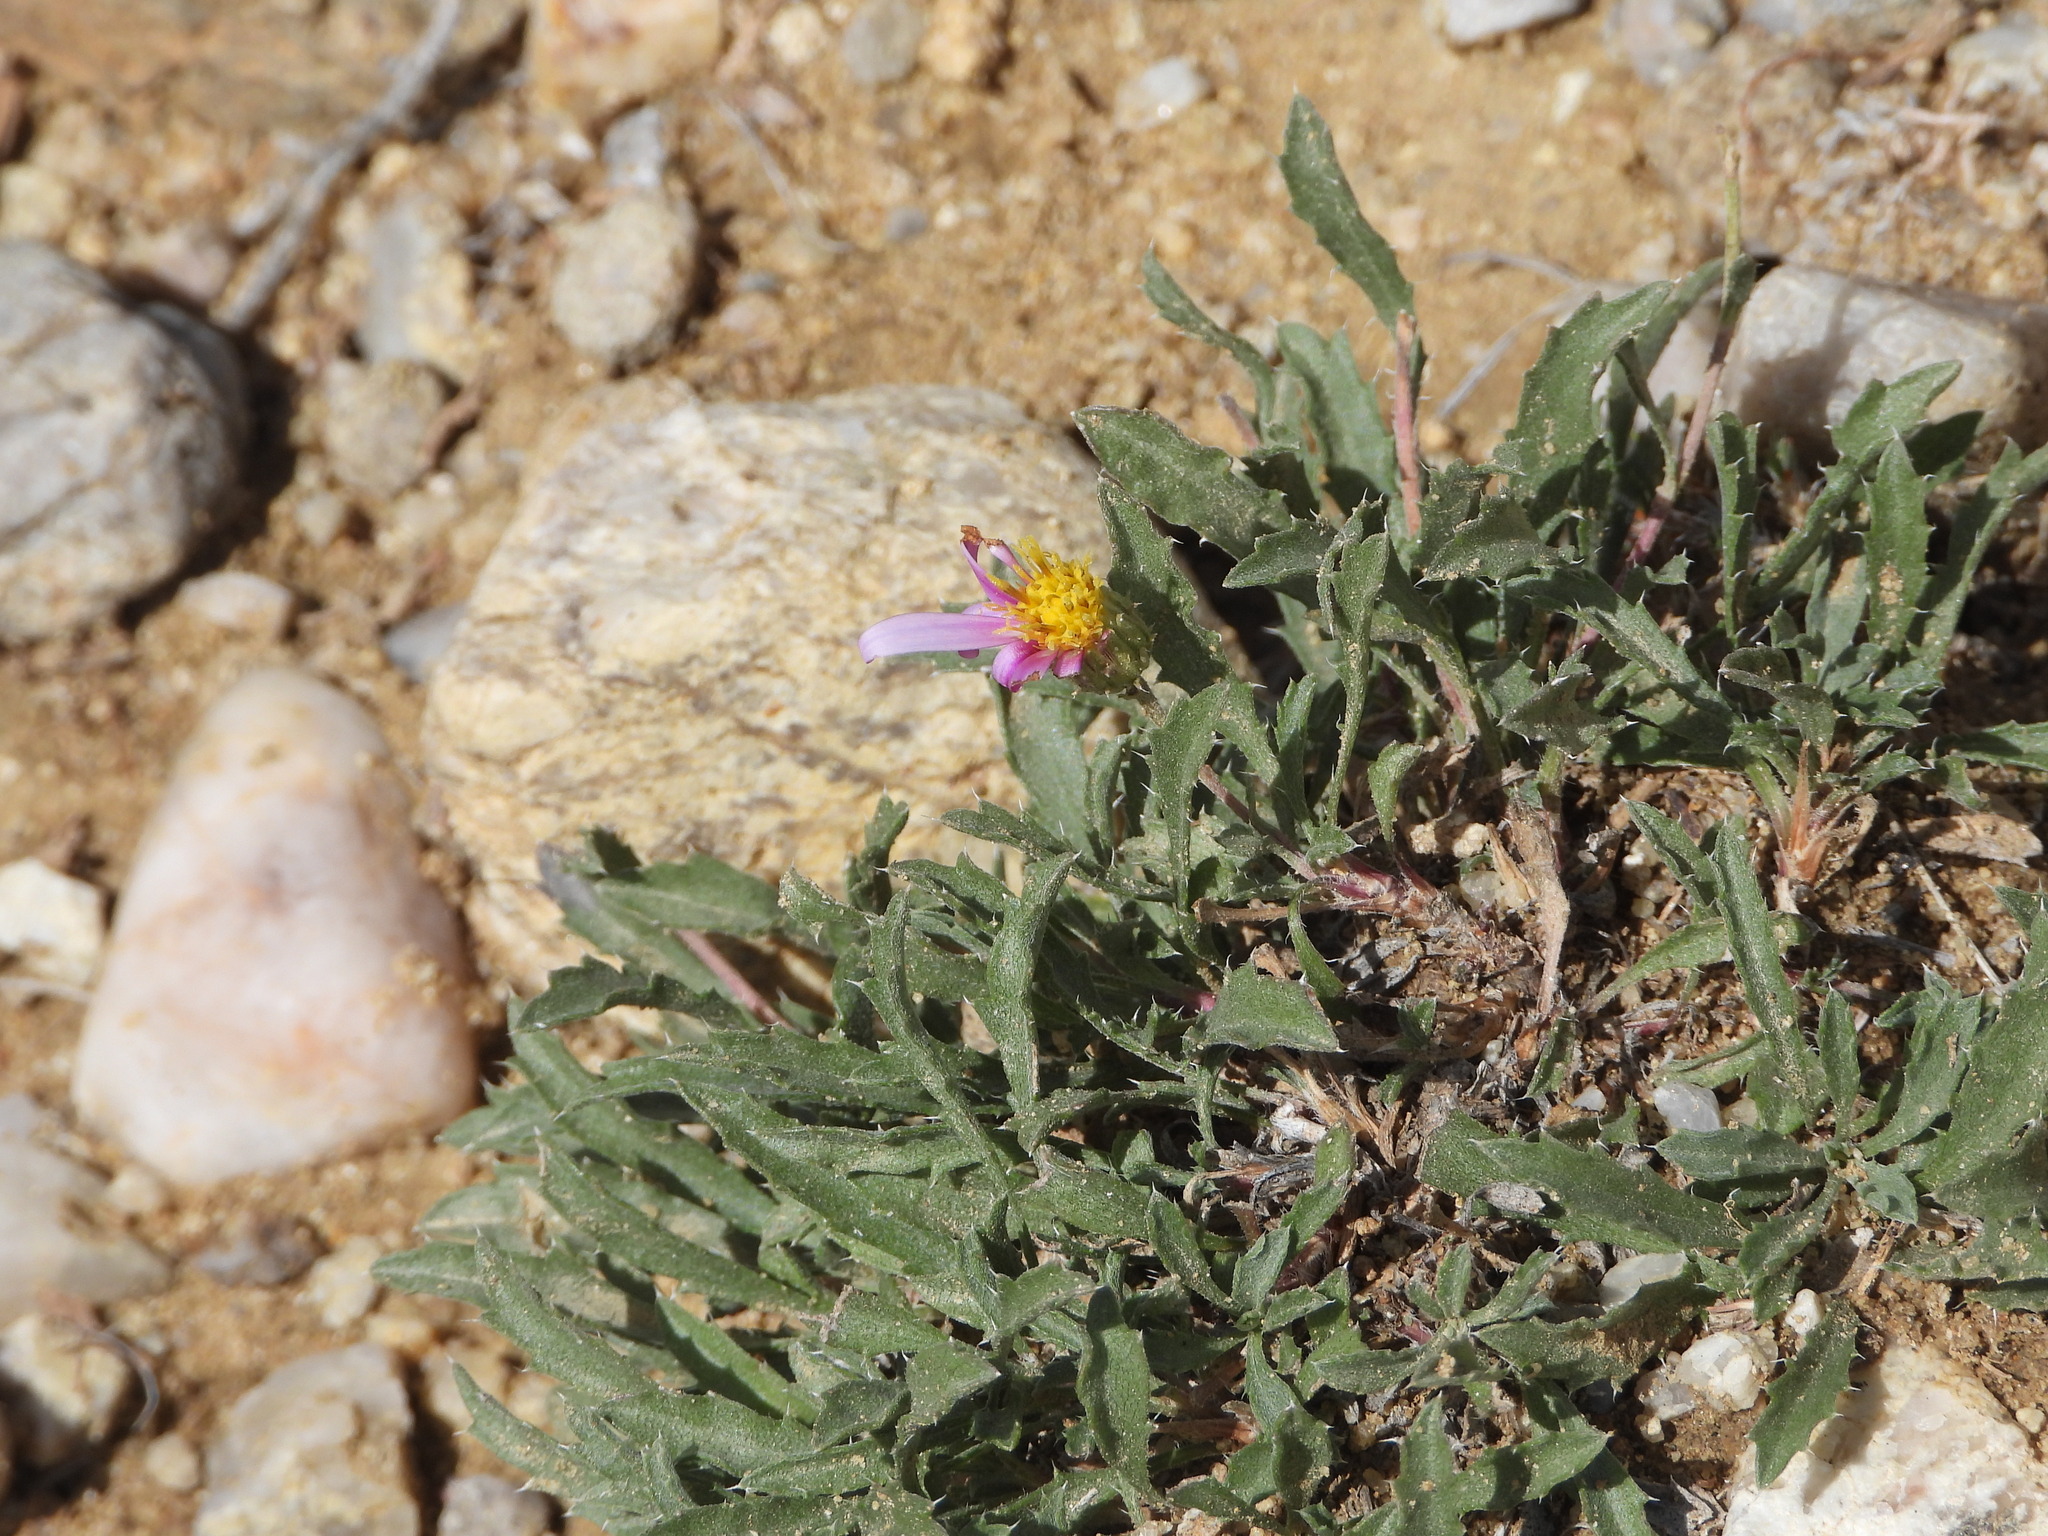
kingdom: Plantae
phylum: Tracheophyta
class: Magnoliopsida
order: Asterales
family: Asteraceae
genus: Xanthisma
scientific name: Xanthisma coloradoense
